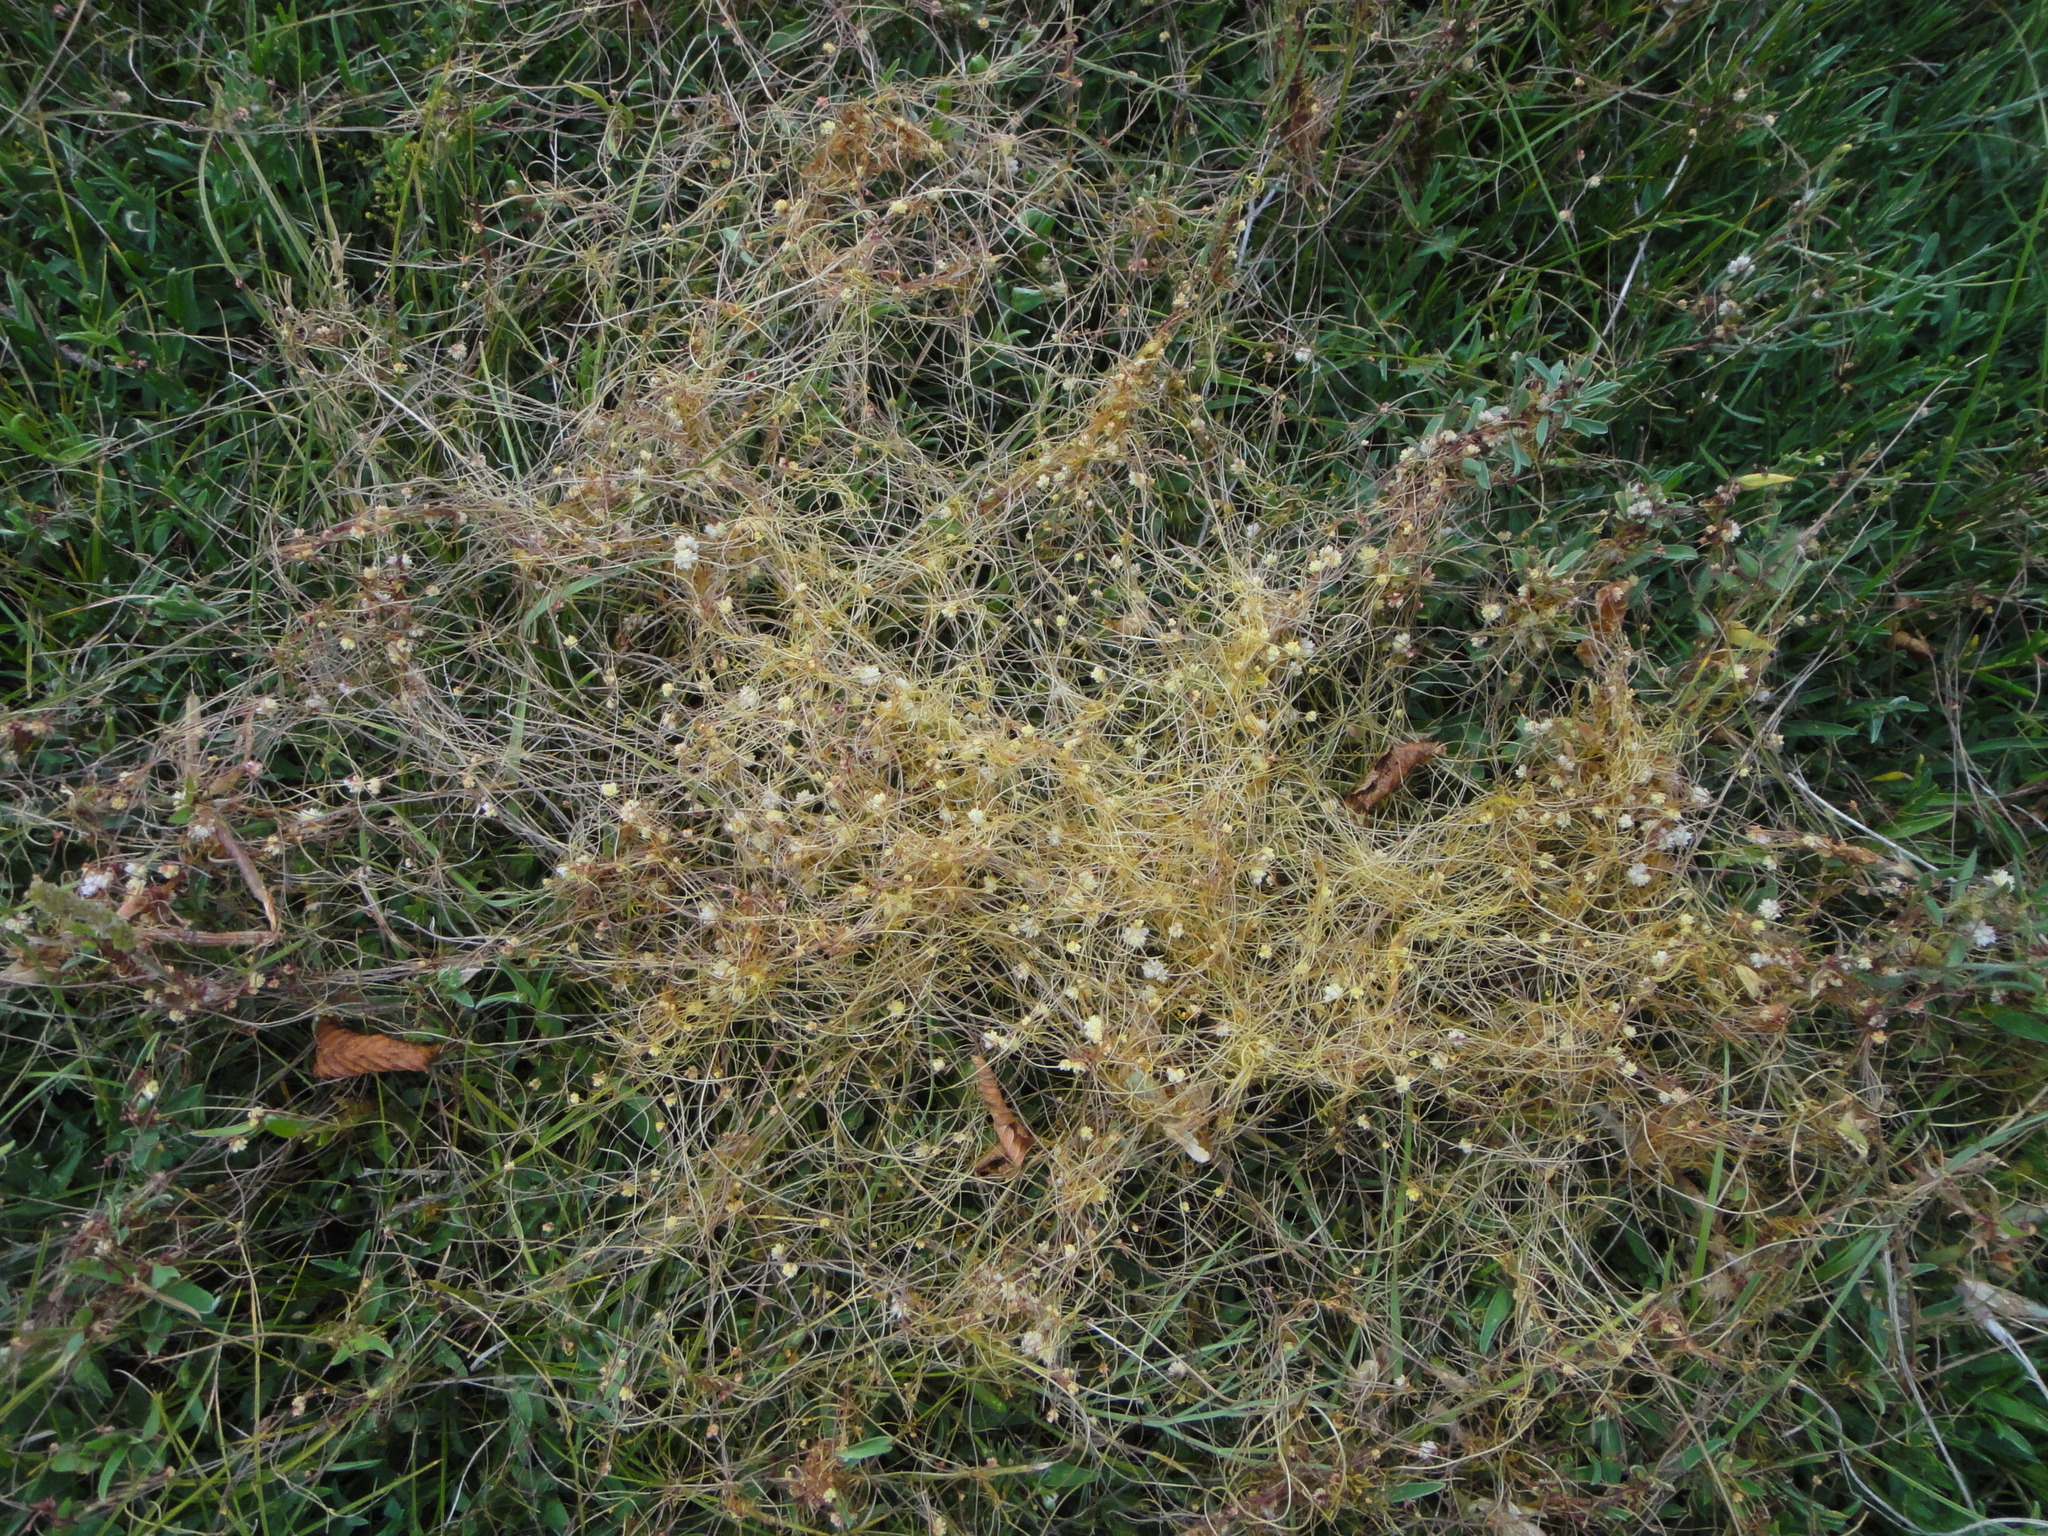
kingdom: Plantae
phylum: Tracheophyta
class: Magnoliopsida
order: Solanales
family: Convolvulaceae
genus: Cuscuta
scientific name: Cuscuta epithymum
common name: Clover dodder
